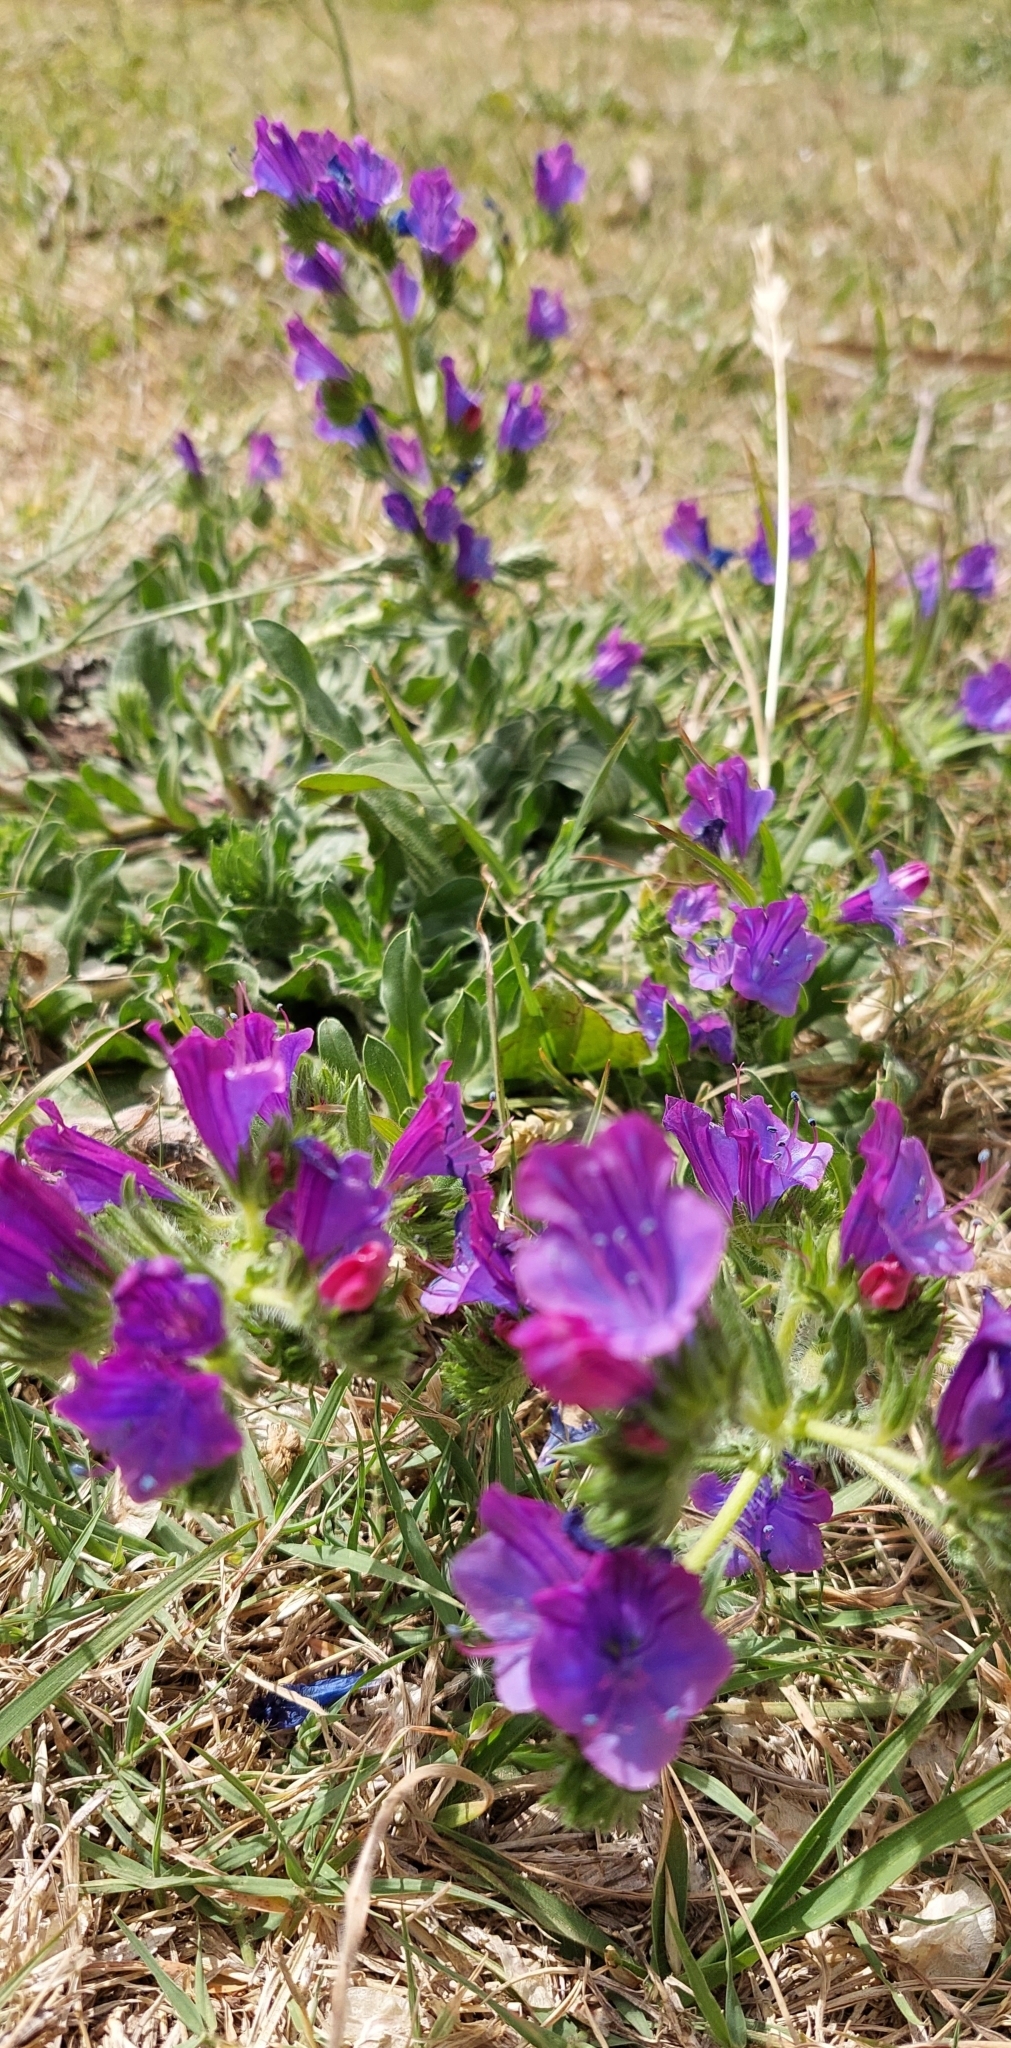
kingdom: Plantae
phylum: Tracheophyta
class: Magnoliopsida
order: Boraginales
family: Boraginaceae
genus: Echium
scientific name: Echium plantagineum
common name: Purple viper's-bugloss
